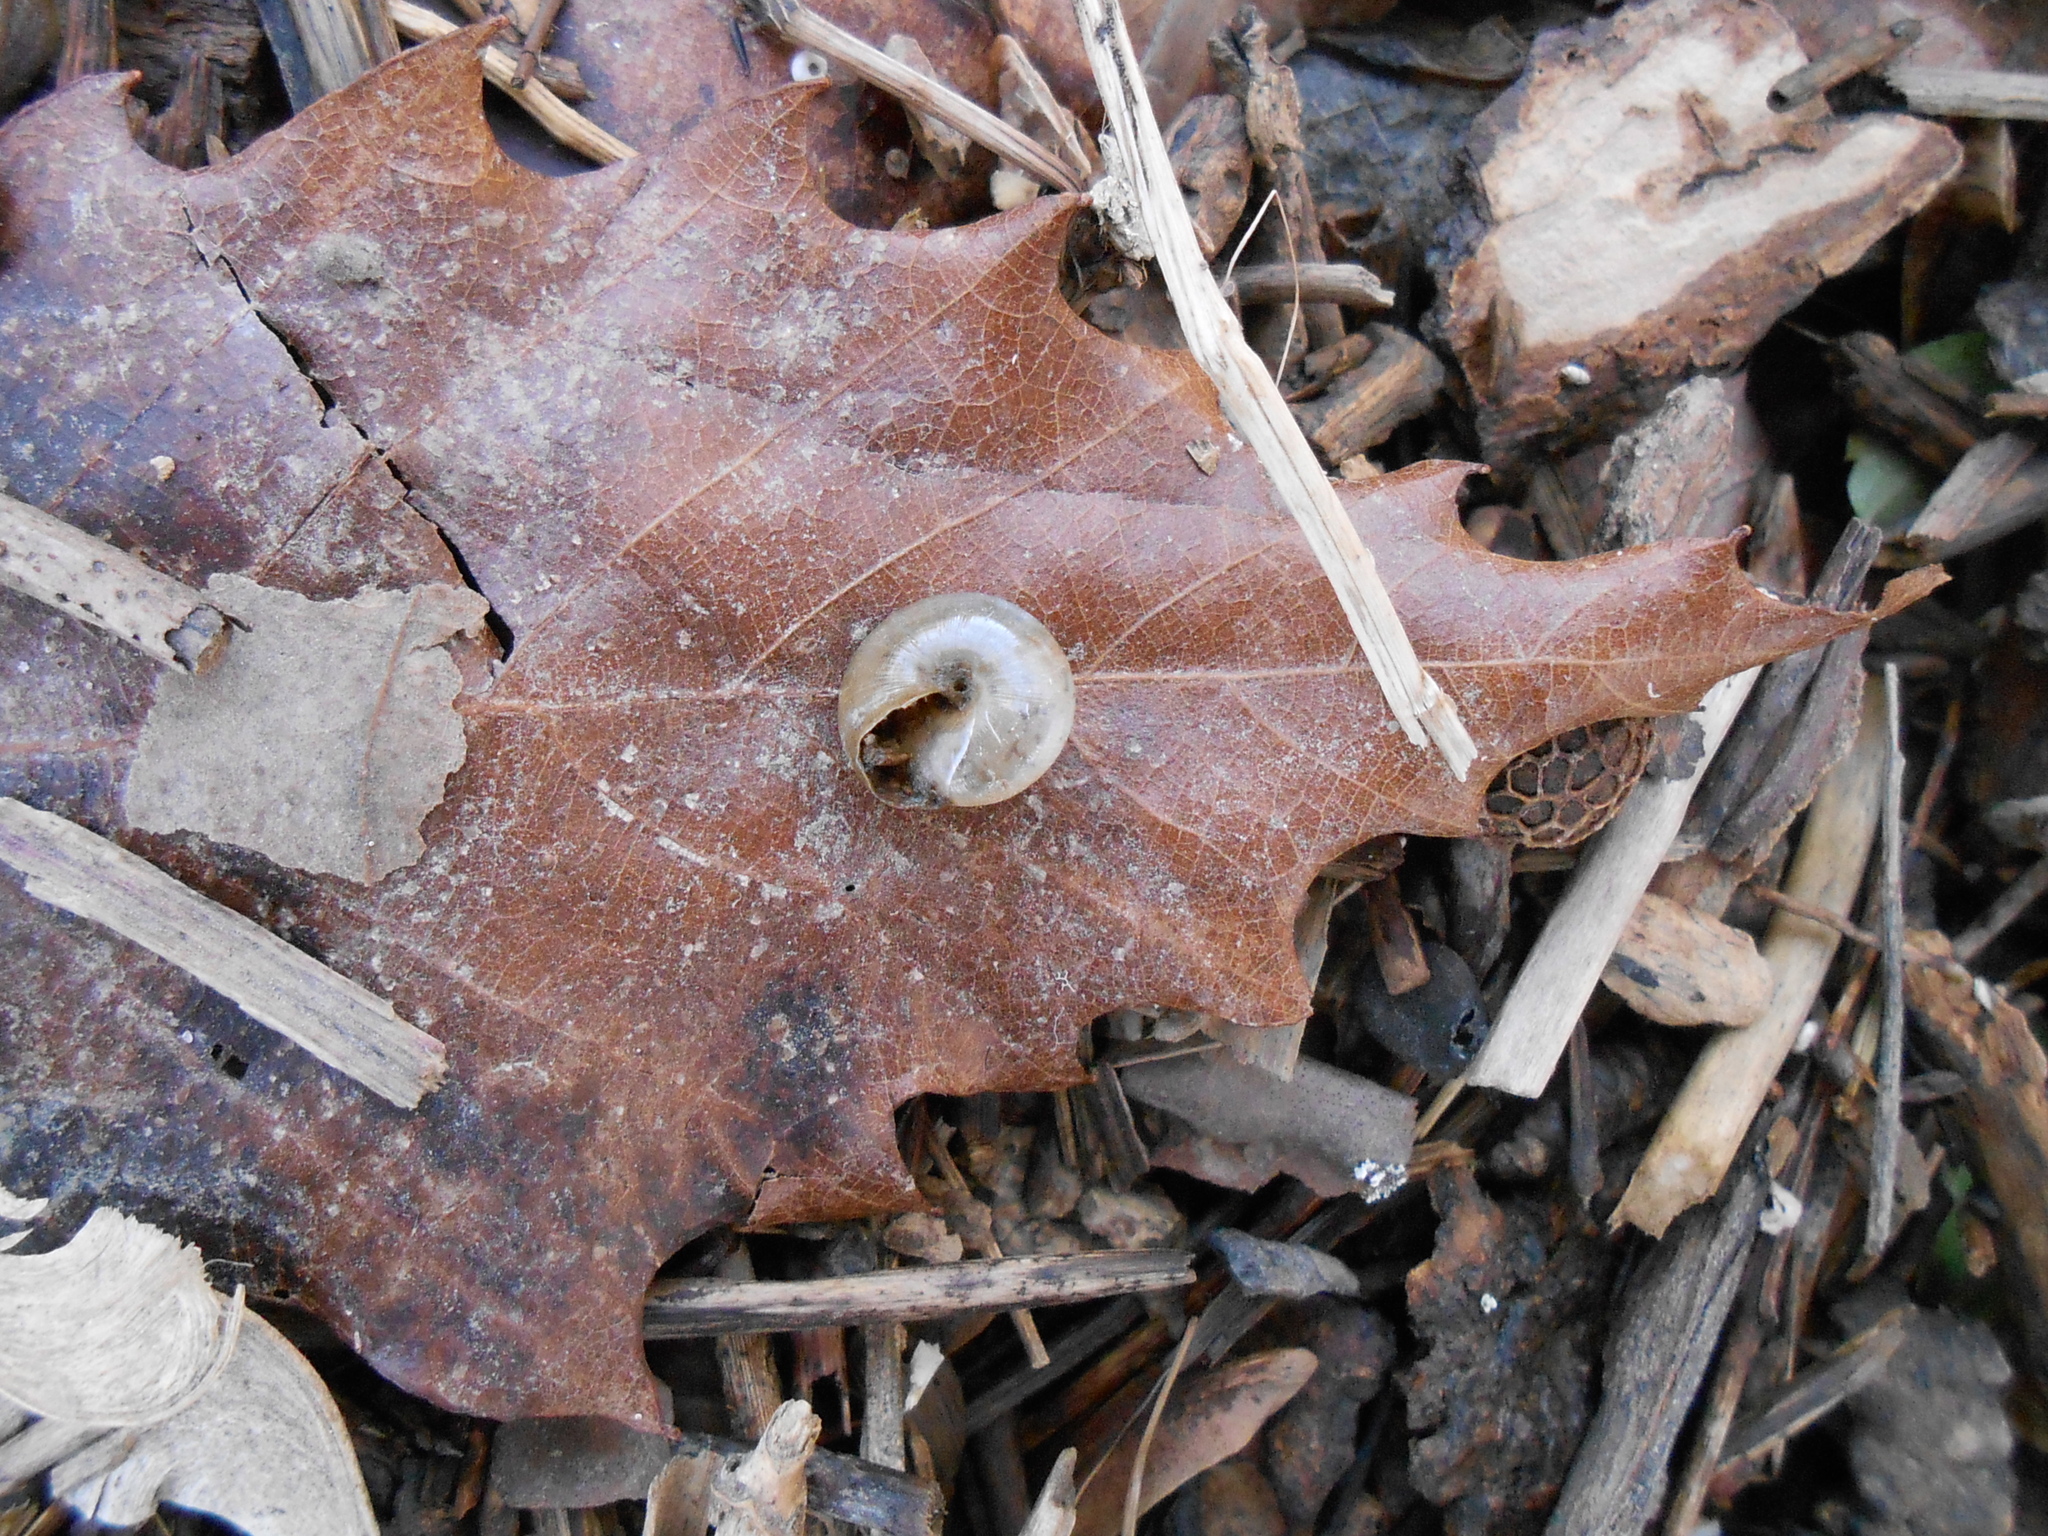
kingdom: Animalia
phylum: Mollusca
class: Gastropoda
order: Stylommatophora
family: Gastrodontidae
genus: Ventridens
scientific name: Ventridens ligera
